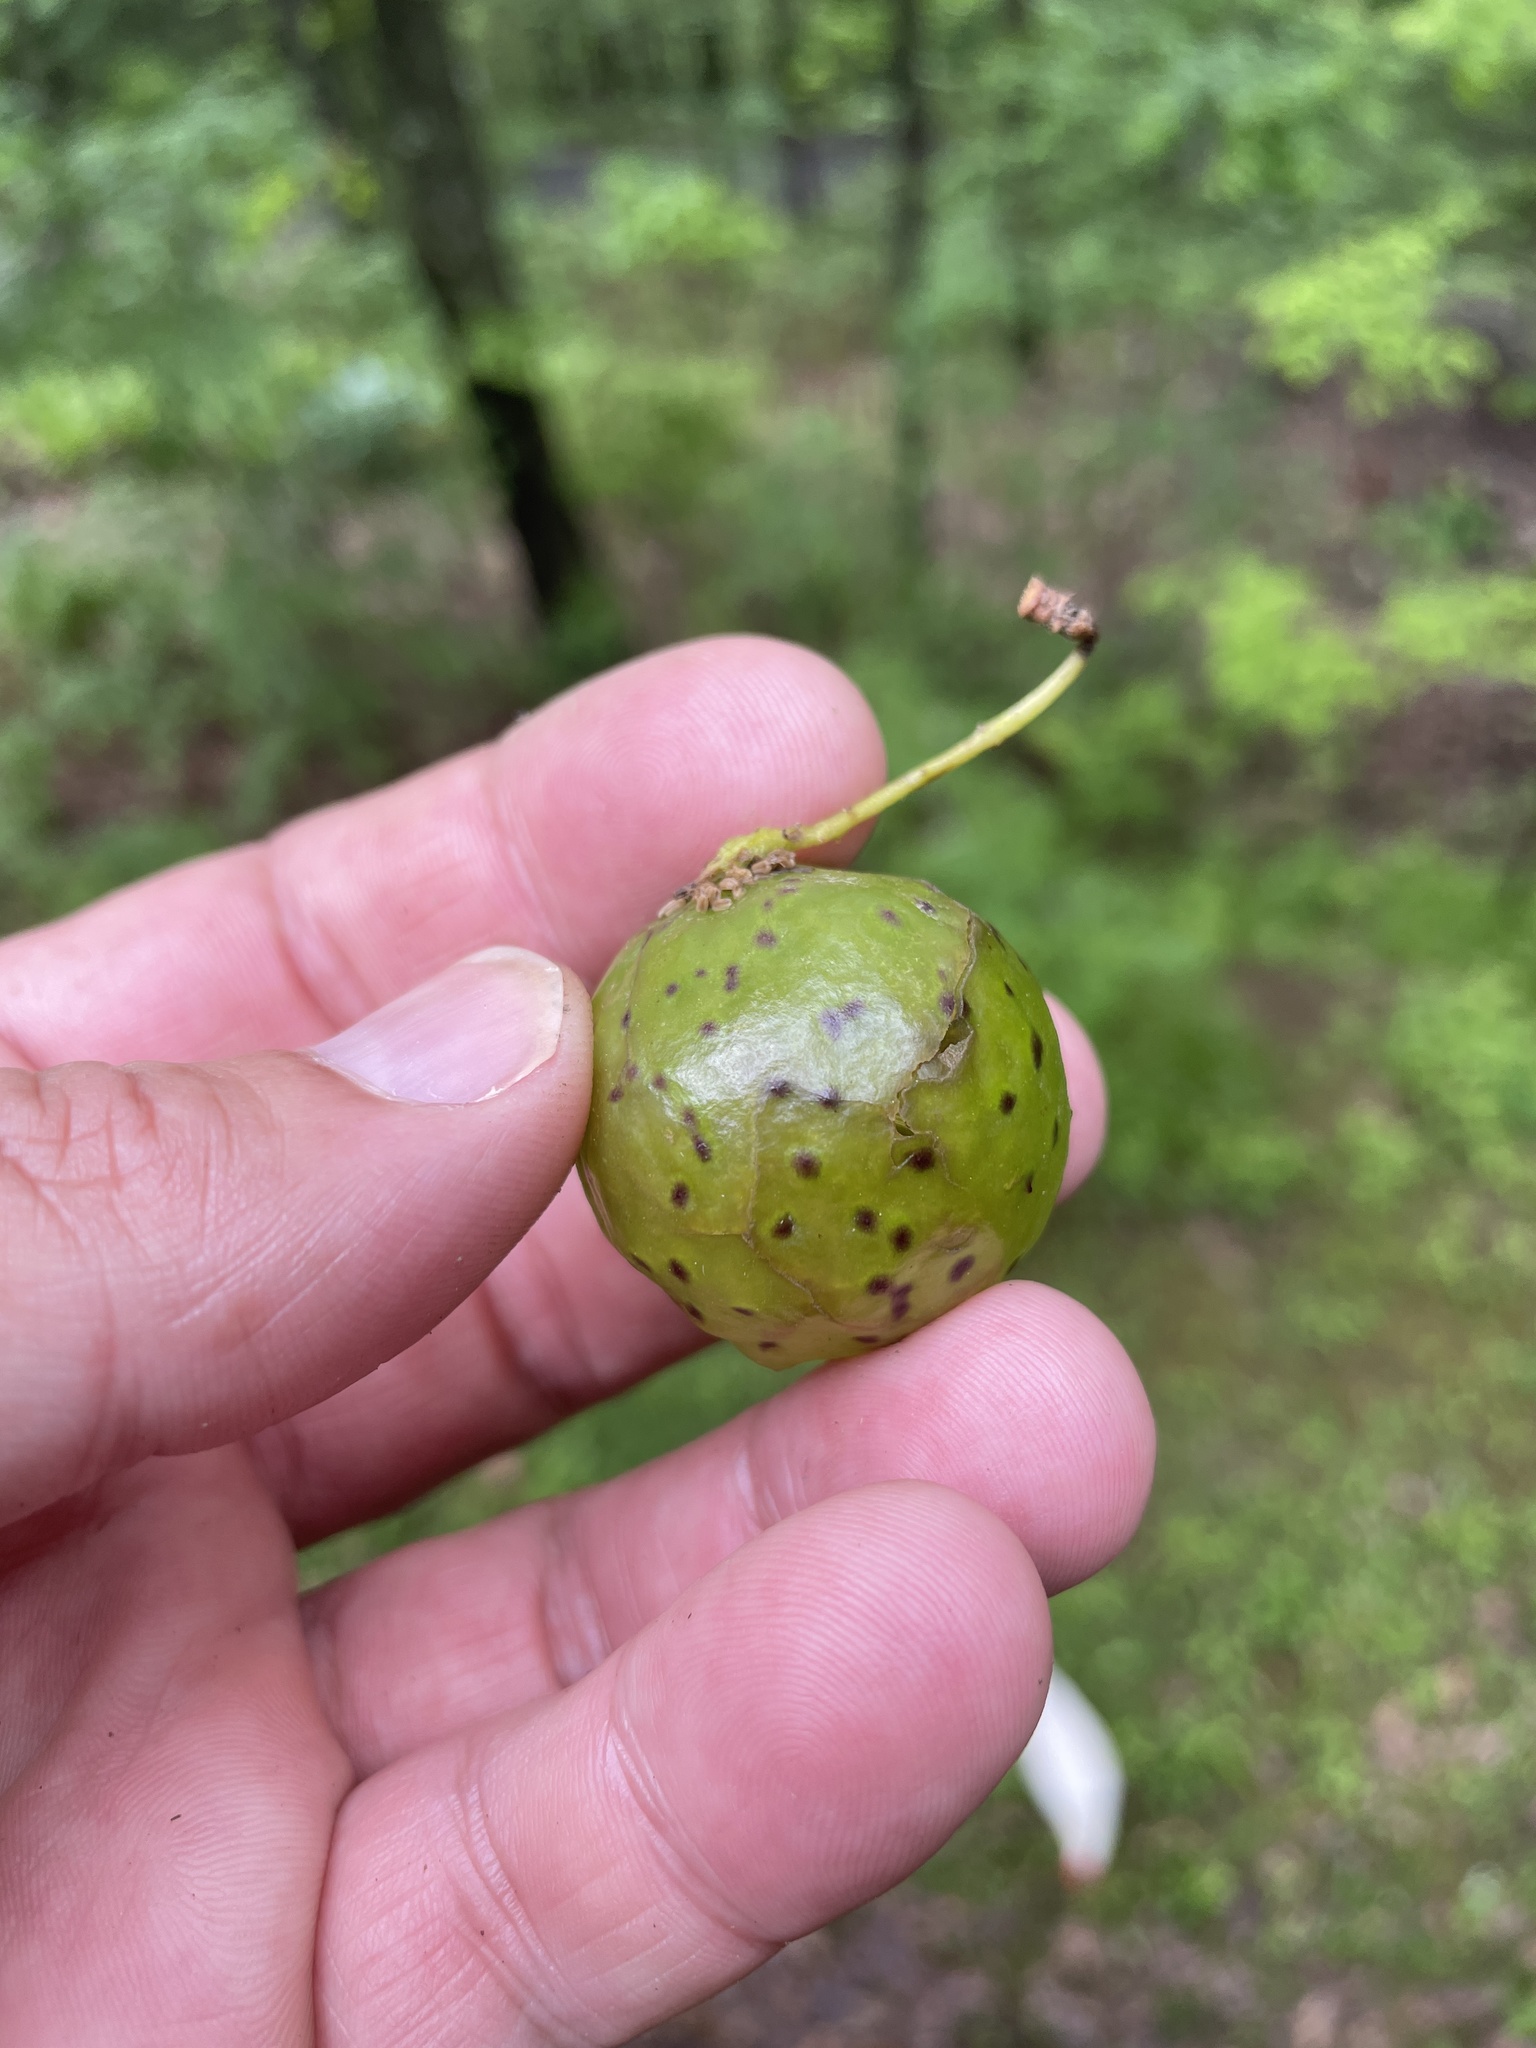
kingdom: Animalia
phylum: Arthropoda
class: Insecta
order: Hymenoptera
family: Cynipidae
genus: Amphibolips
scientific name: Amphibolips
